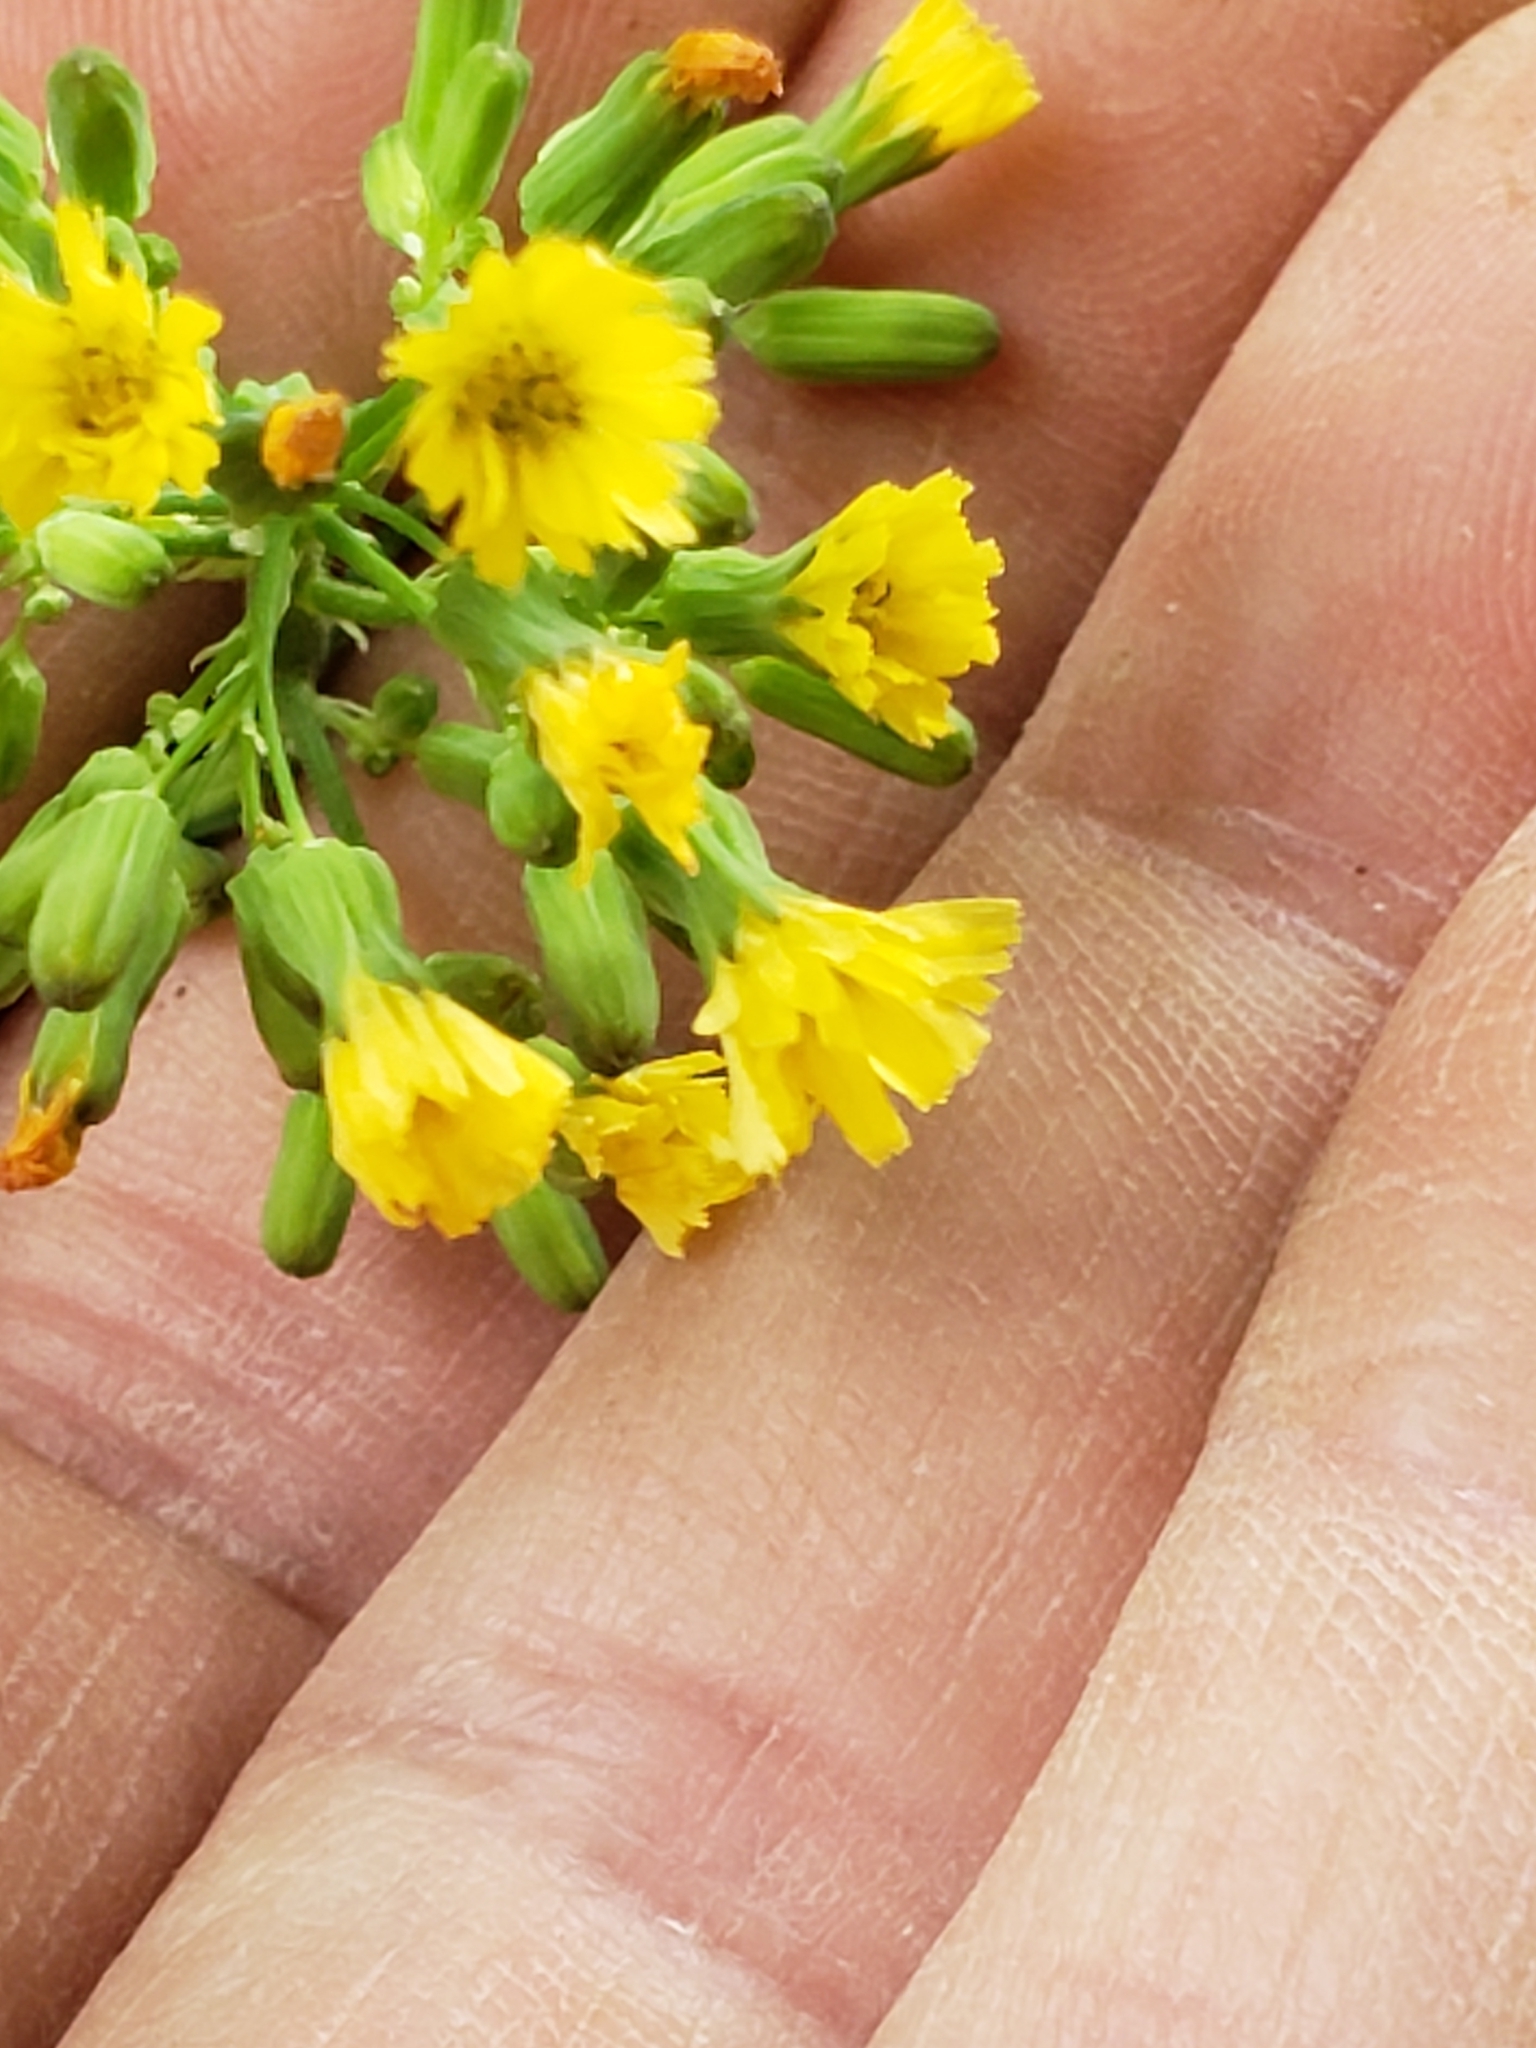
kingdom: Plantae
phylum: Tracheophyta
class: Magnoliopsida
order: Asterales
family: Asteraceae
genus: Youngia
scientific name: Youngia japonica
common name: Oriental false hawksbeard
